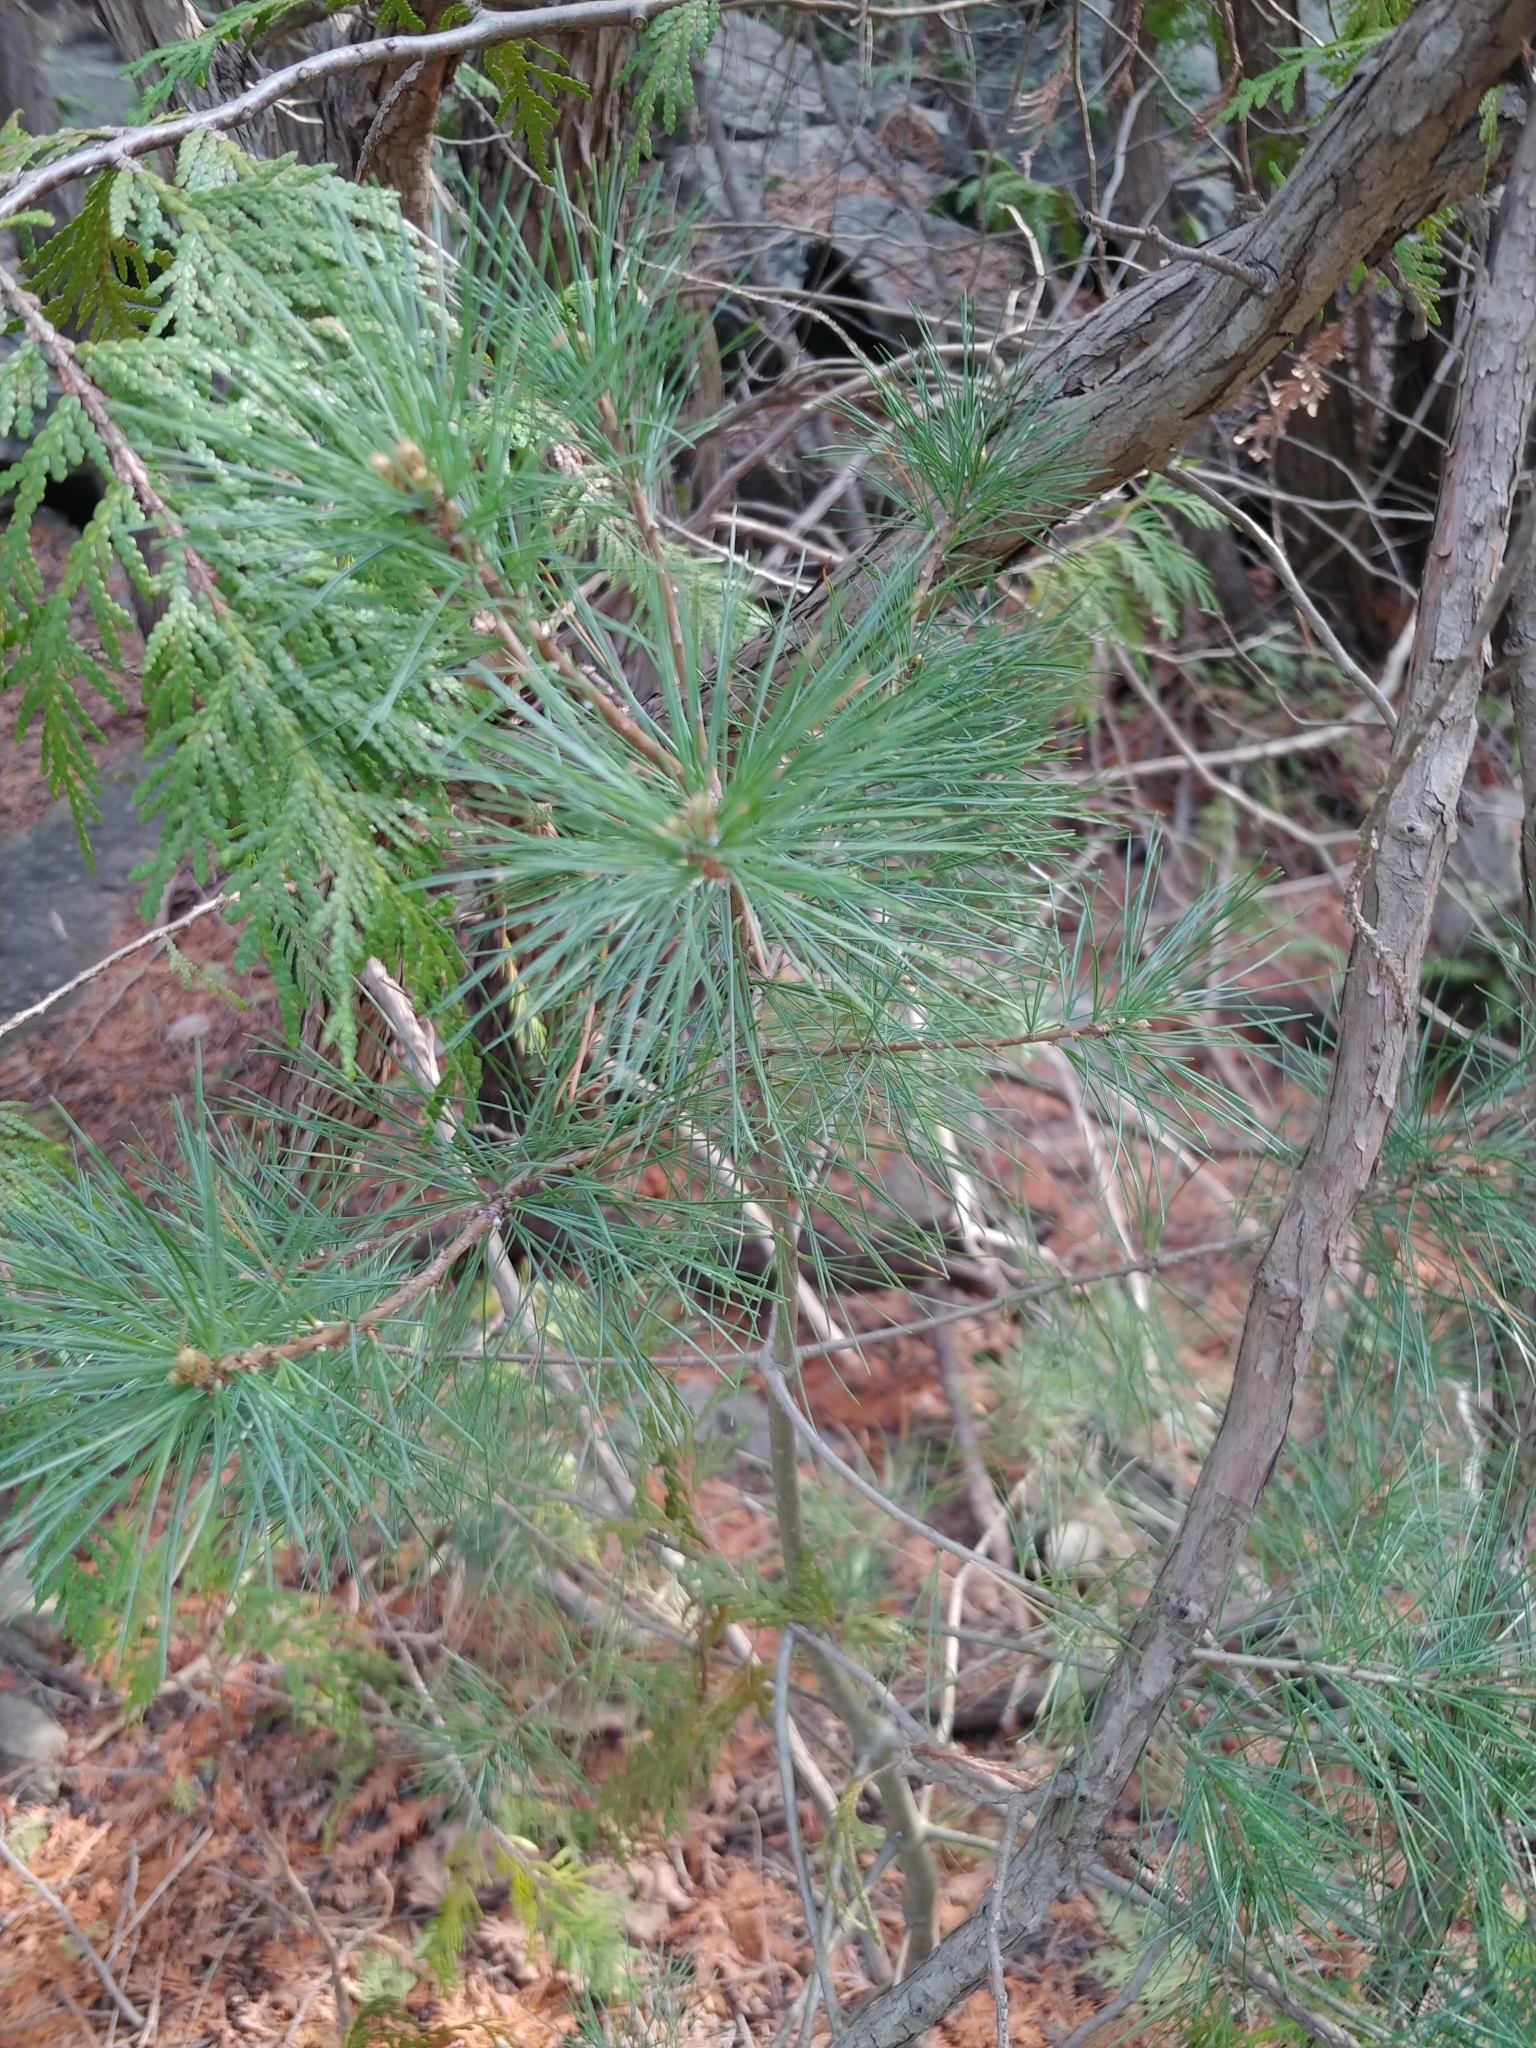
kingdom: Plantae
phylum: Tracheophyta
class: Pinopsida
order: Pinales
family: Pinaceae
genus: Pinus
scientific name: Pinus strobus
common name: Weymouth pine
